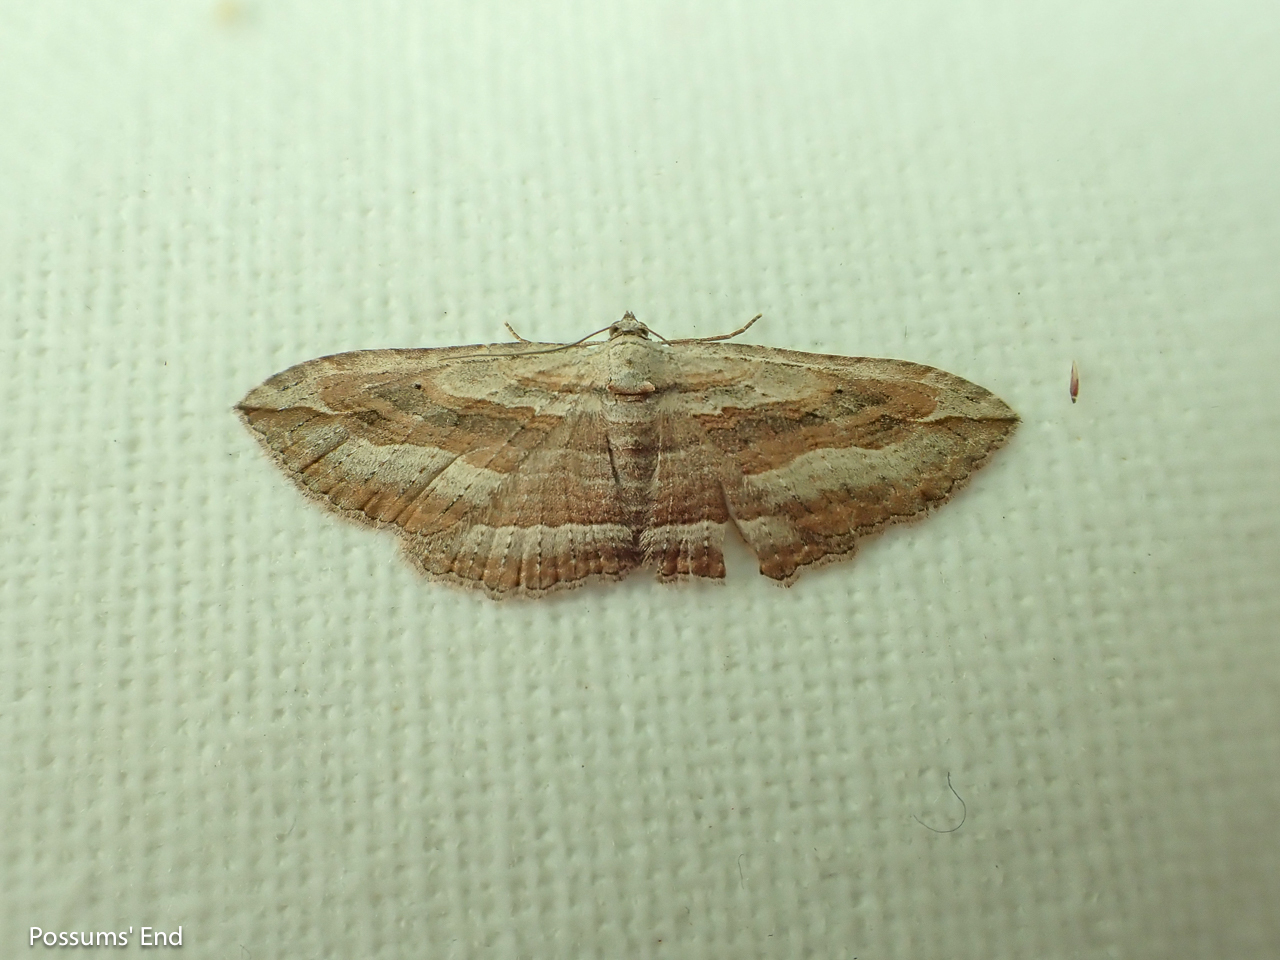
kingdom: Animalia
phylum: Arthropoda
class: Insecta
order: Lepidoptera
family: Geometridae
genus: Austrocidaria
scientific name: Austrocidaria gobiata
